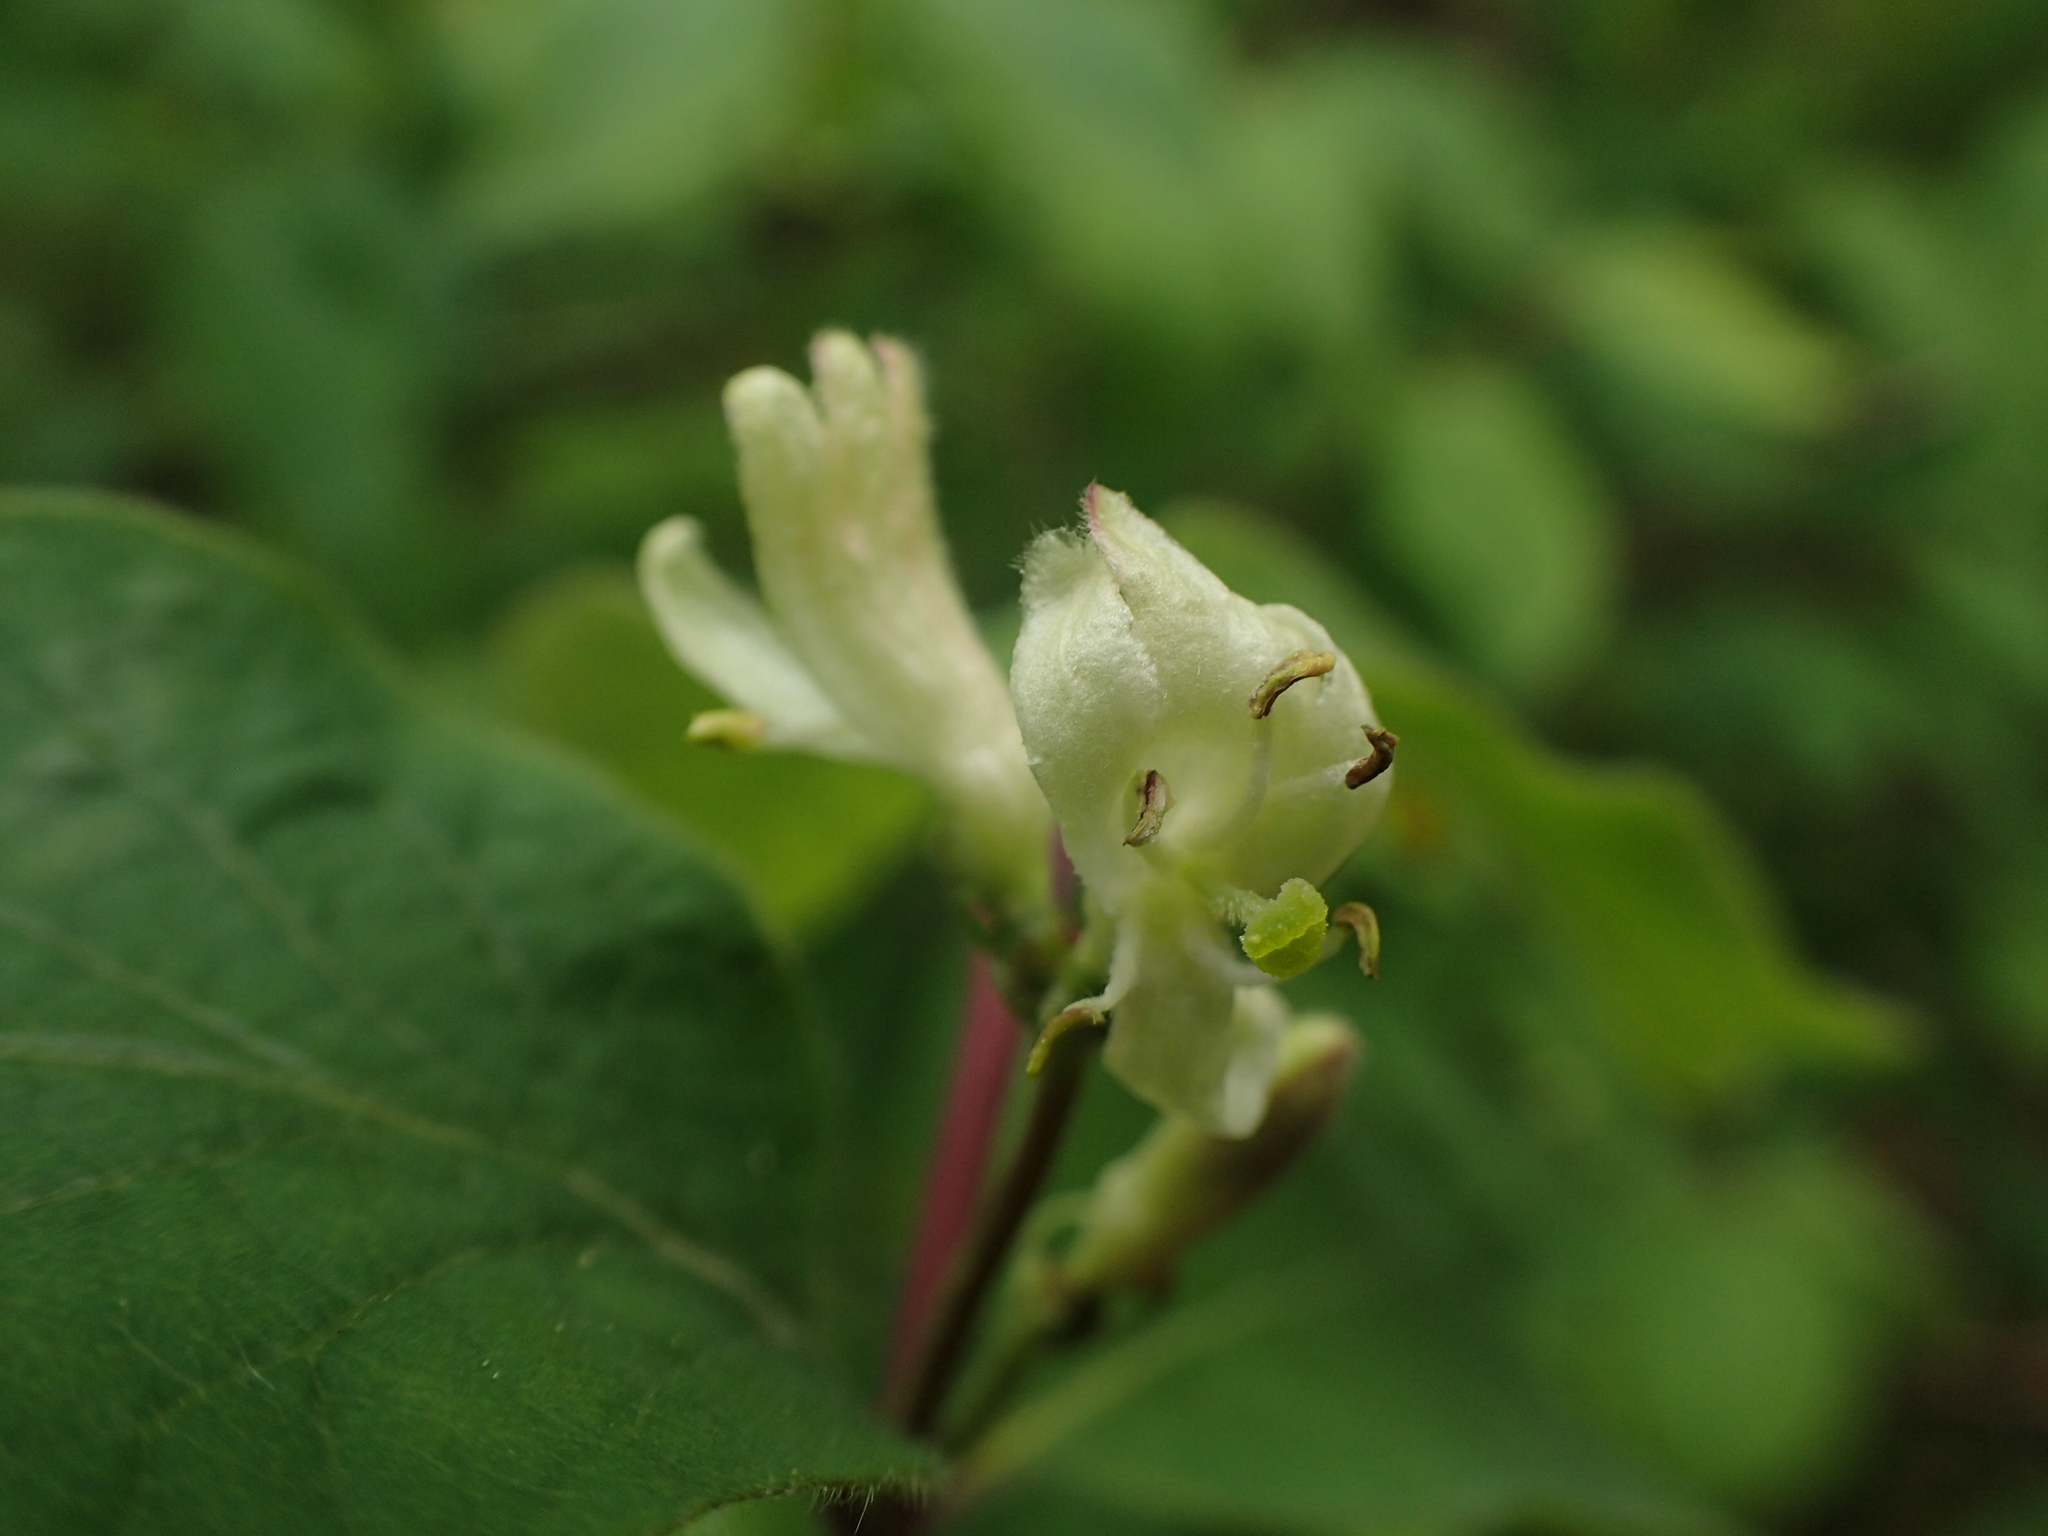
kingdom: Plantae
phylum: Tracheophyta
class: Magnoliopsida
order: Dipsacales
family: Caprifoliaceae
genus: Lonicera
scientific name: Lonicera xylosteum
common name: Fly honeysuckle
